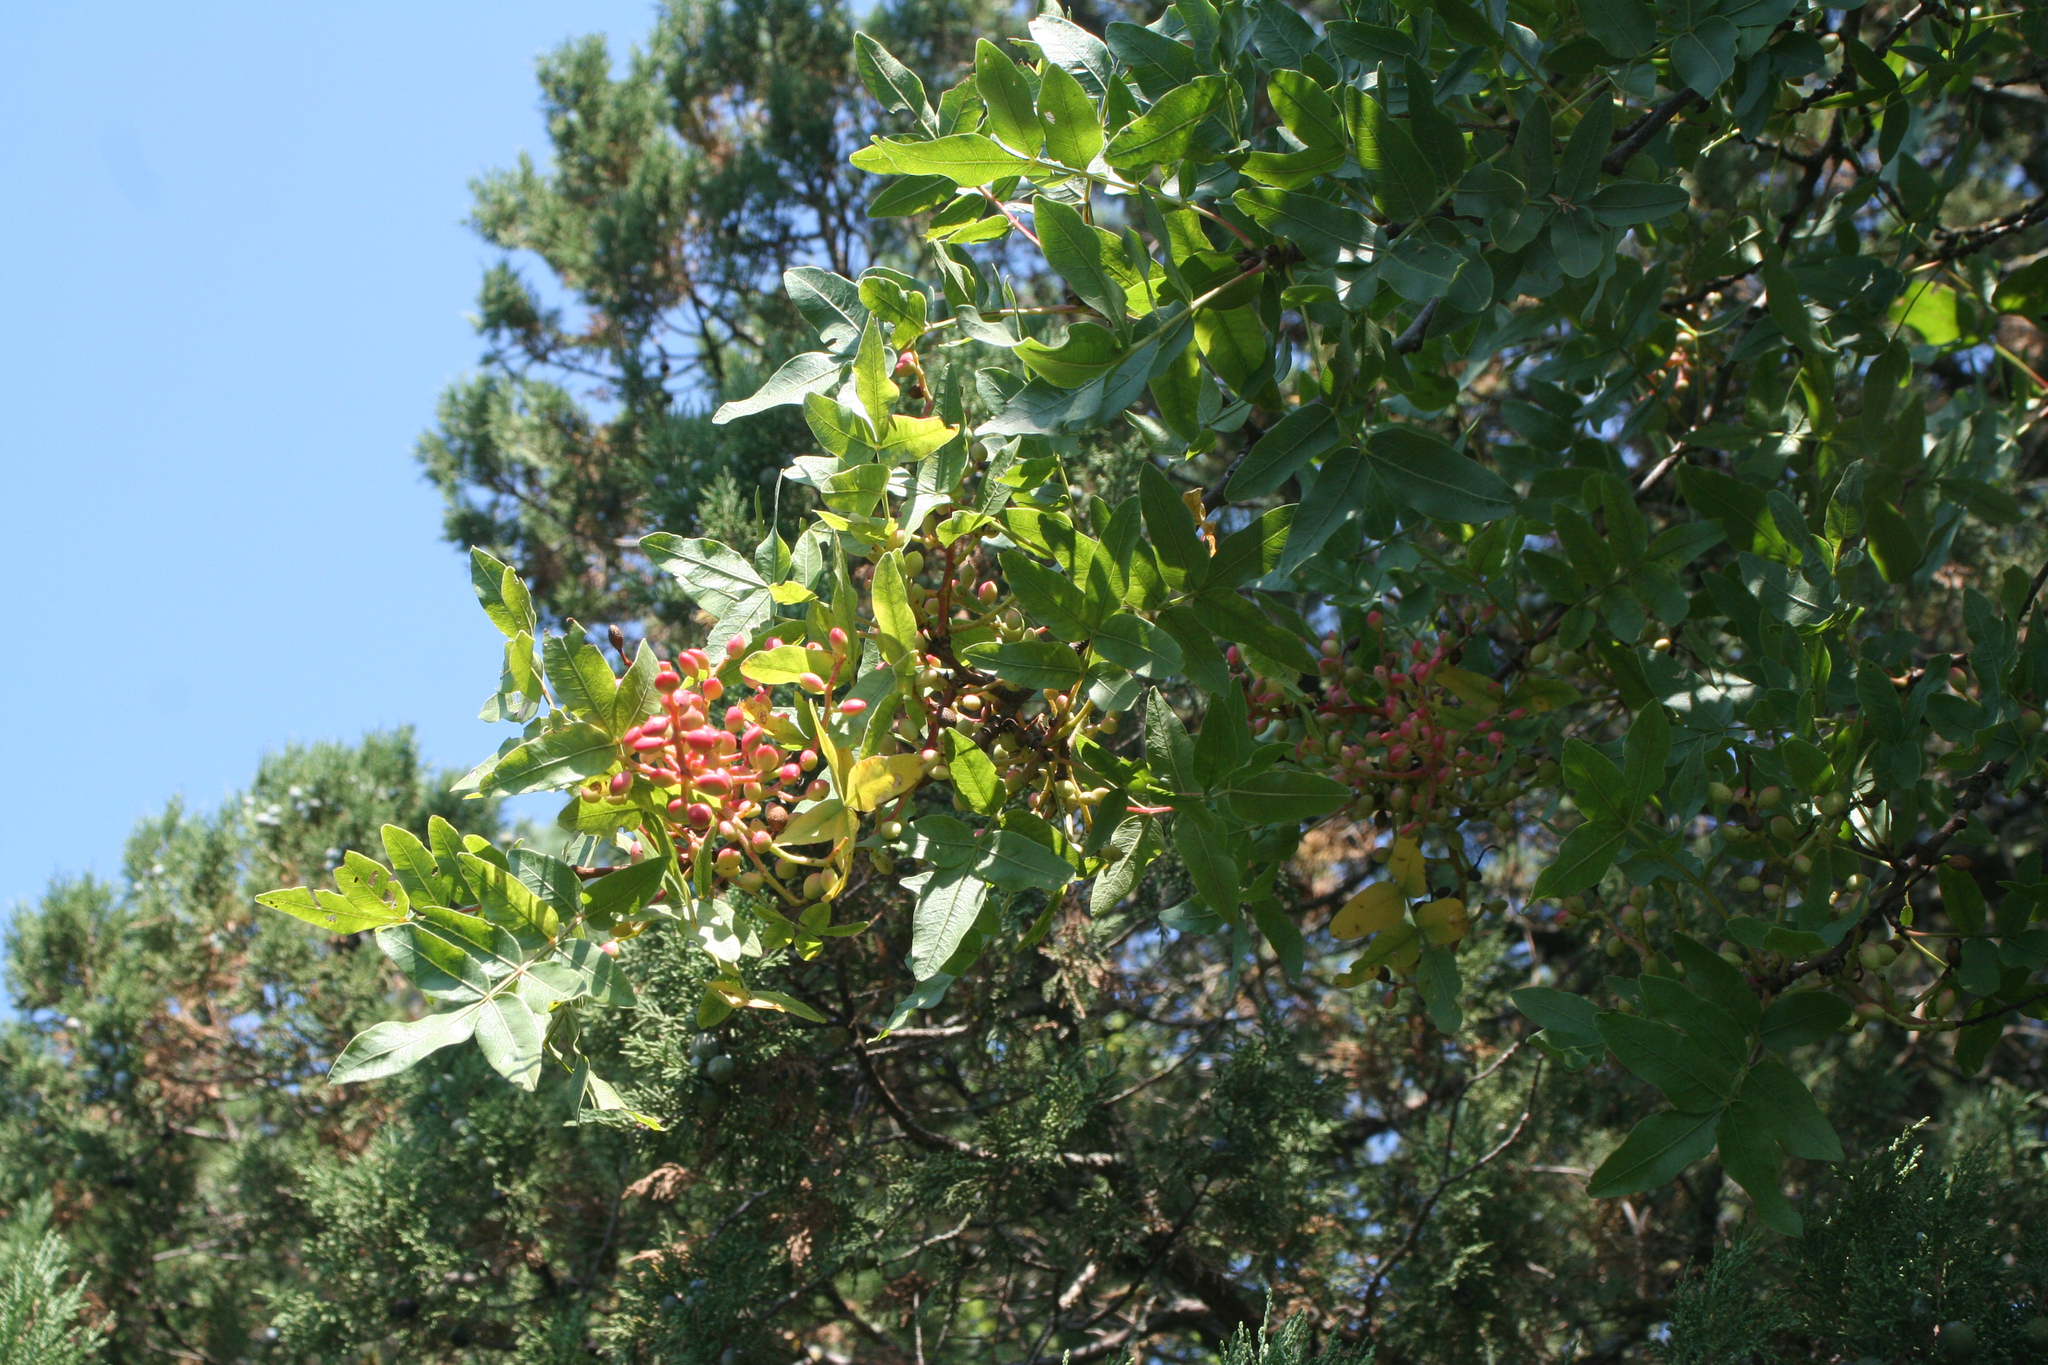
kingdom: Plantae
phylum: Tracheophyta
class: Magnoliopsida
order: Sapindales
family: Anacardiaceae
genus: Pistacia
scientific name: Pistacia atlantica
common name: Mt. atlas mastic tree
